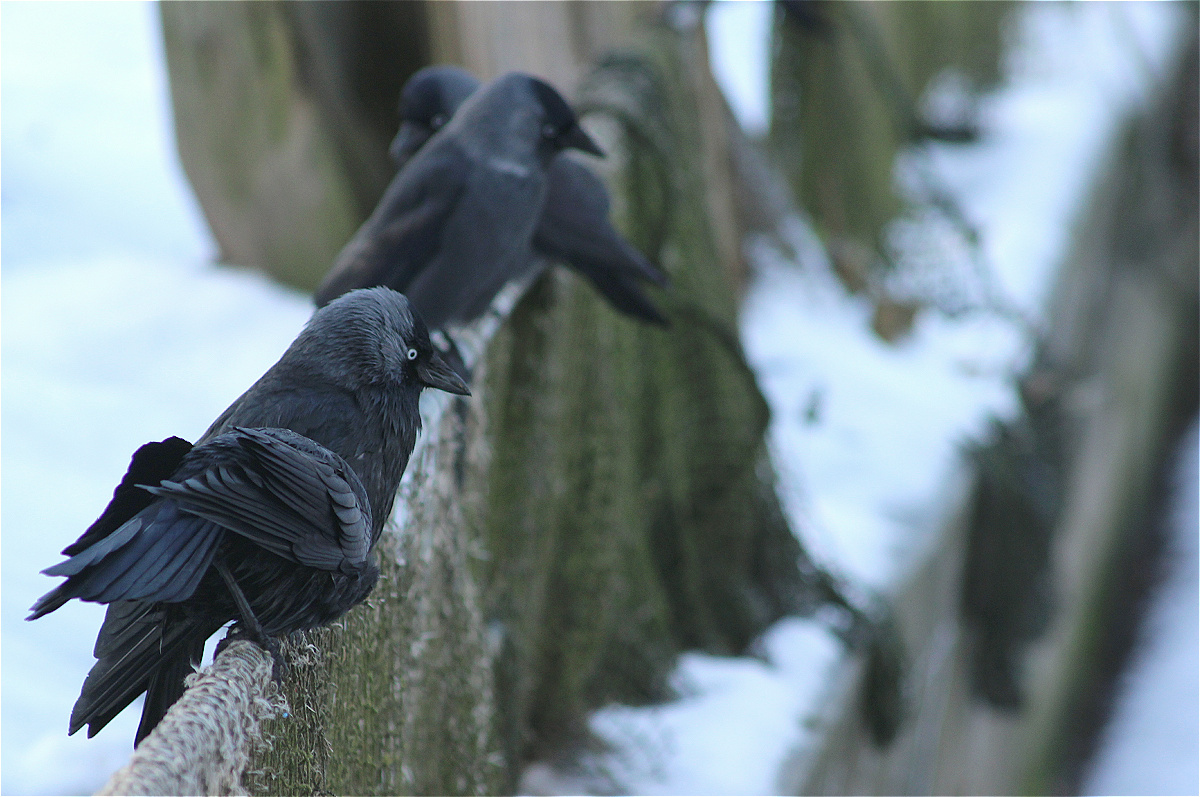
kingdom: Animalia
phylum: Chordata
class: Aves
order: Passeriformes
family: Corvidae
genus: Coloeus
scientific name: Coloeus monedula
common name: Western jackdaw
